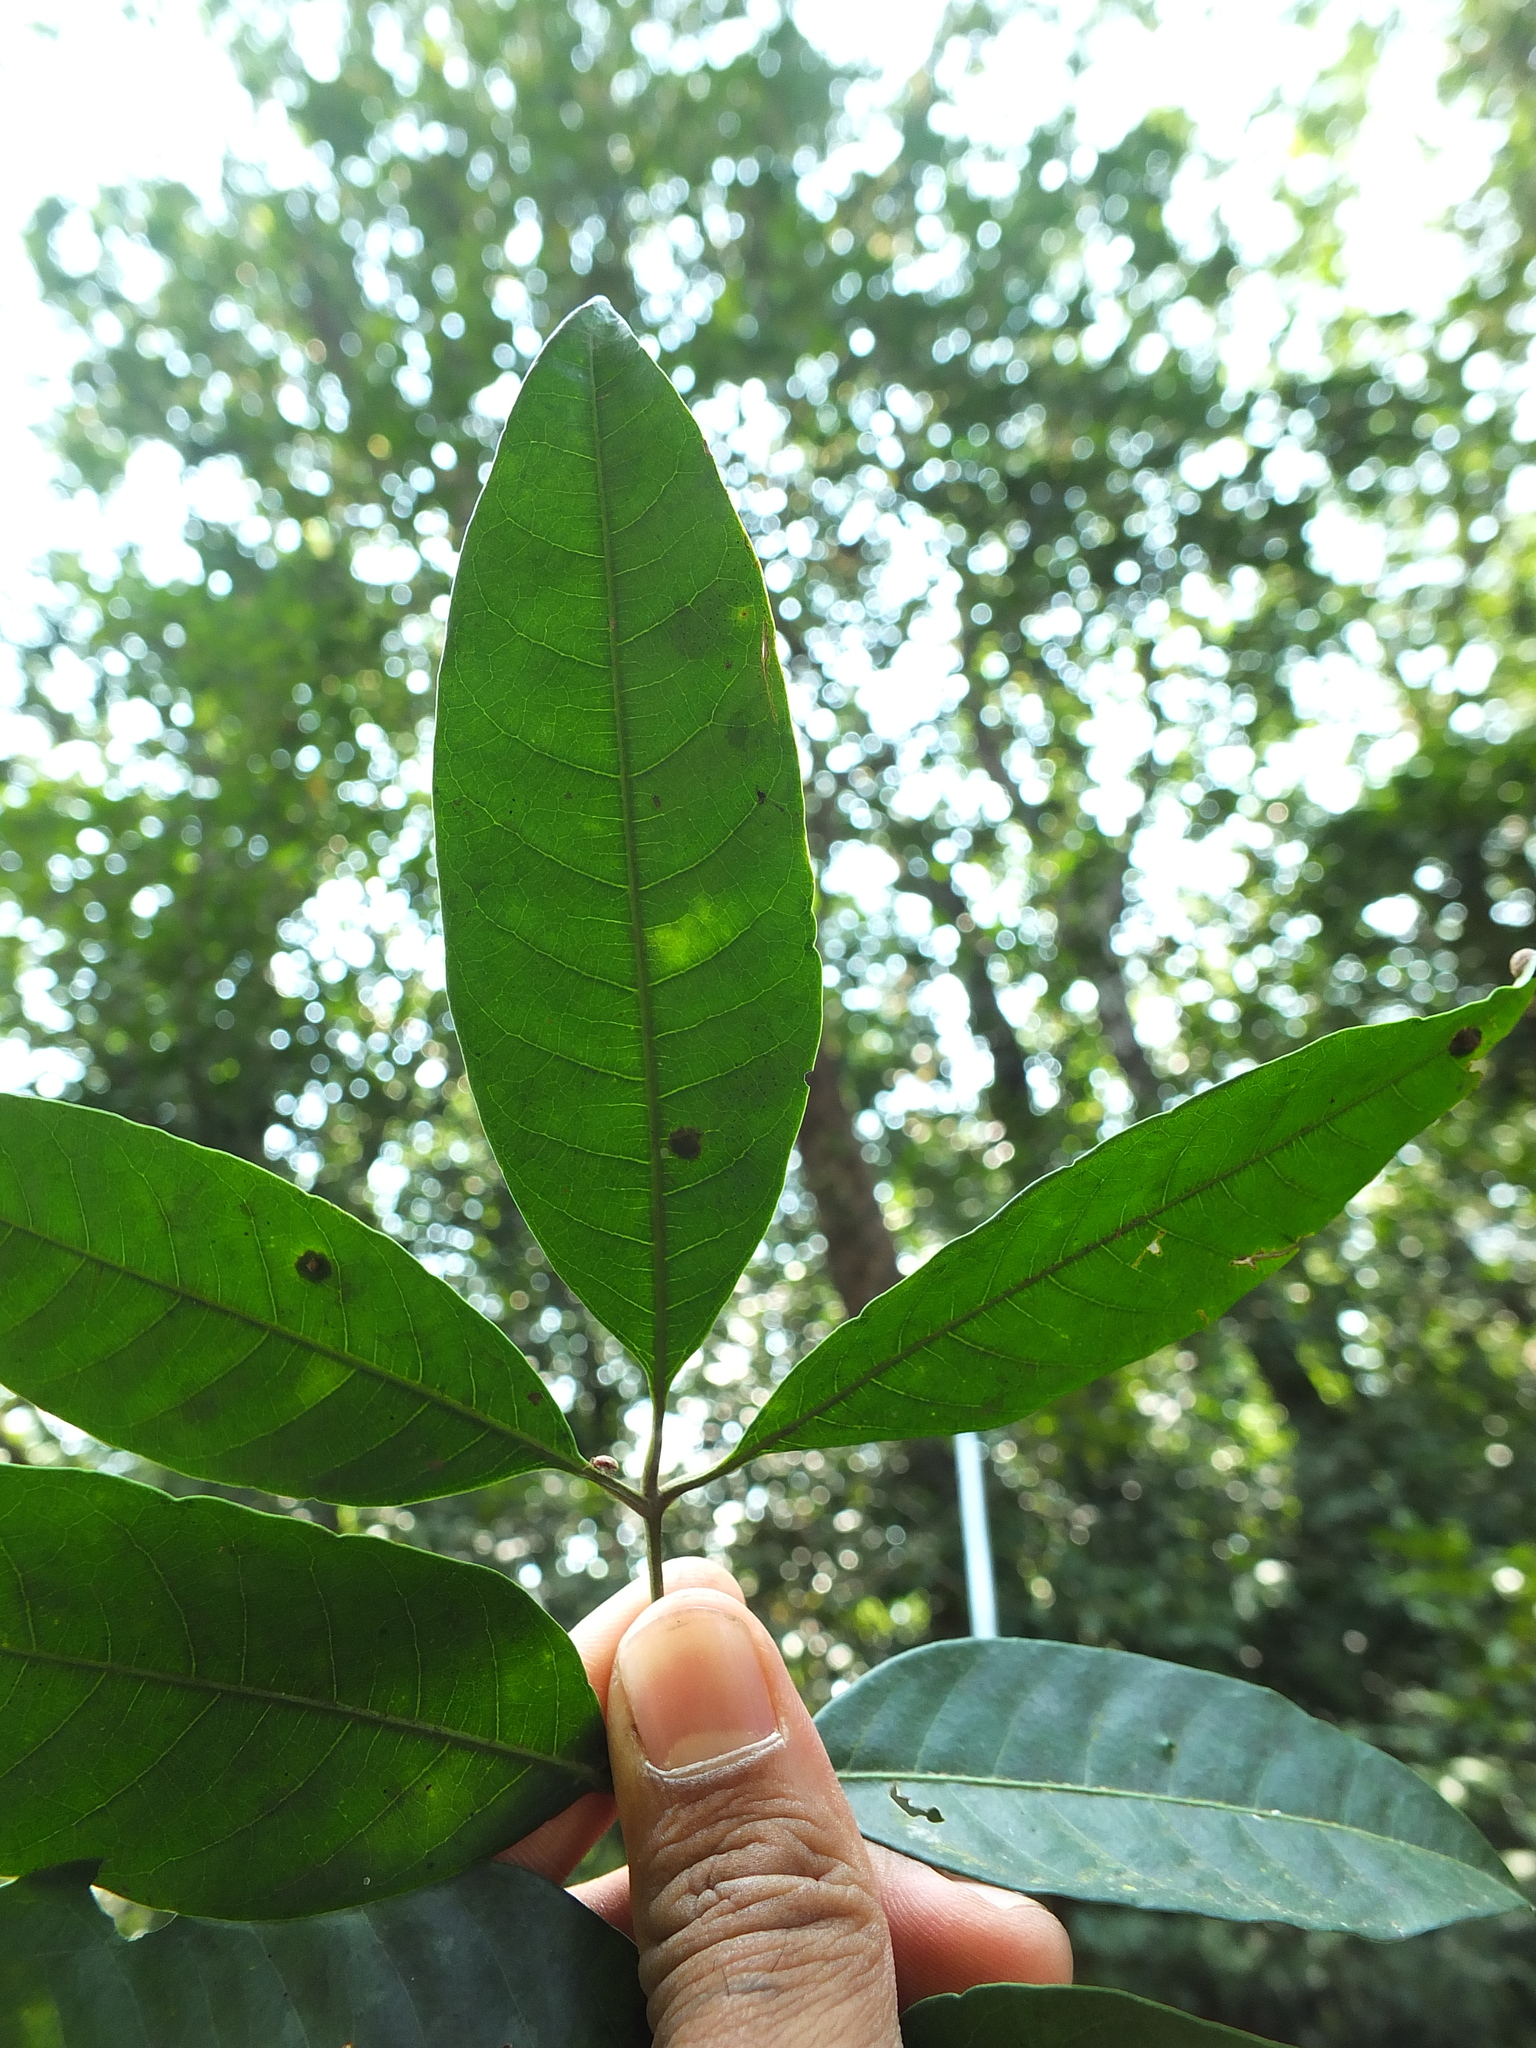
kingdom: Plantae
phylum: Tracheophyta
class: Magnoliopsida
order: Sapindales
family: Meliaceae
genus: Aglaia
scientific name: Aglaia elaeagnoidea
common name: Droopyleaf
